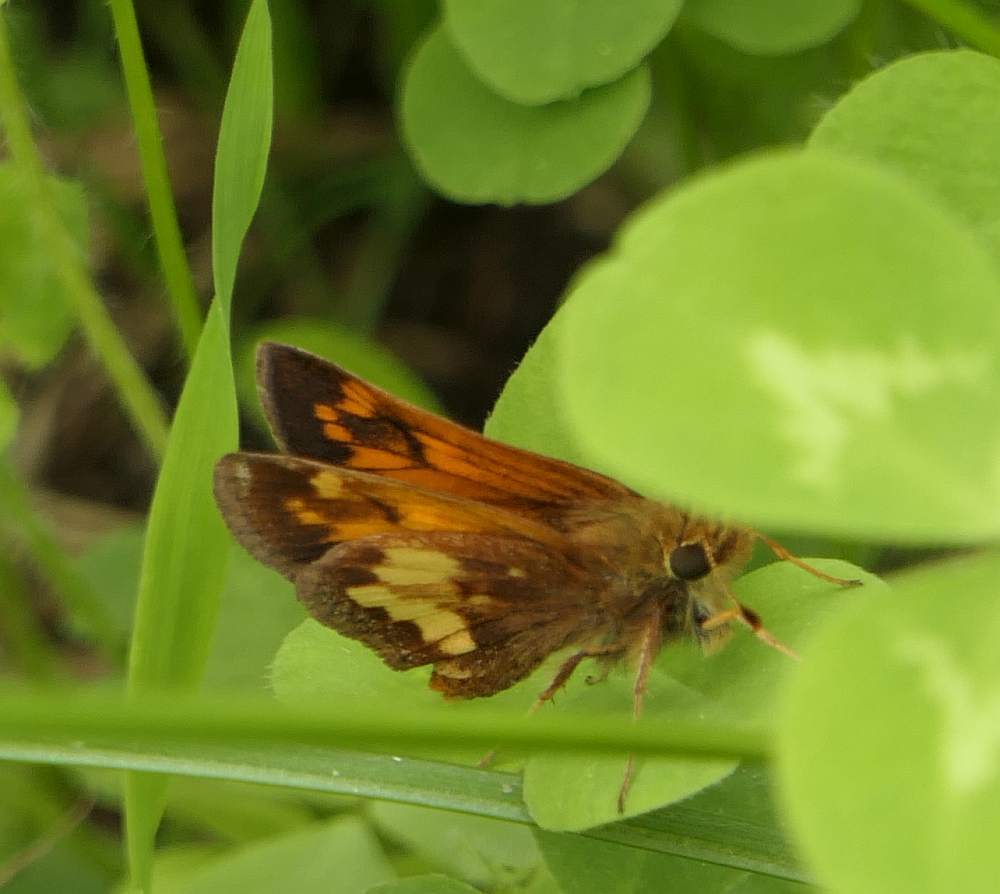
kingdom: Animalia
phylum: Arthropoda
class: Insecta
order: Lepidoptera
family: Hesperiidae
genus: Lon
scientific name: Lon hobomok
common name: Hobomok skipper
